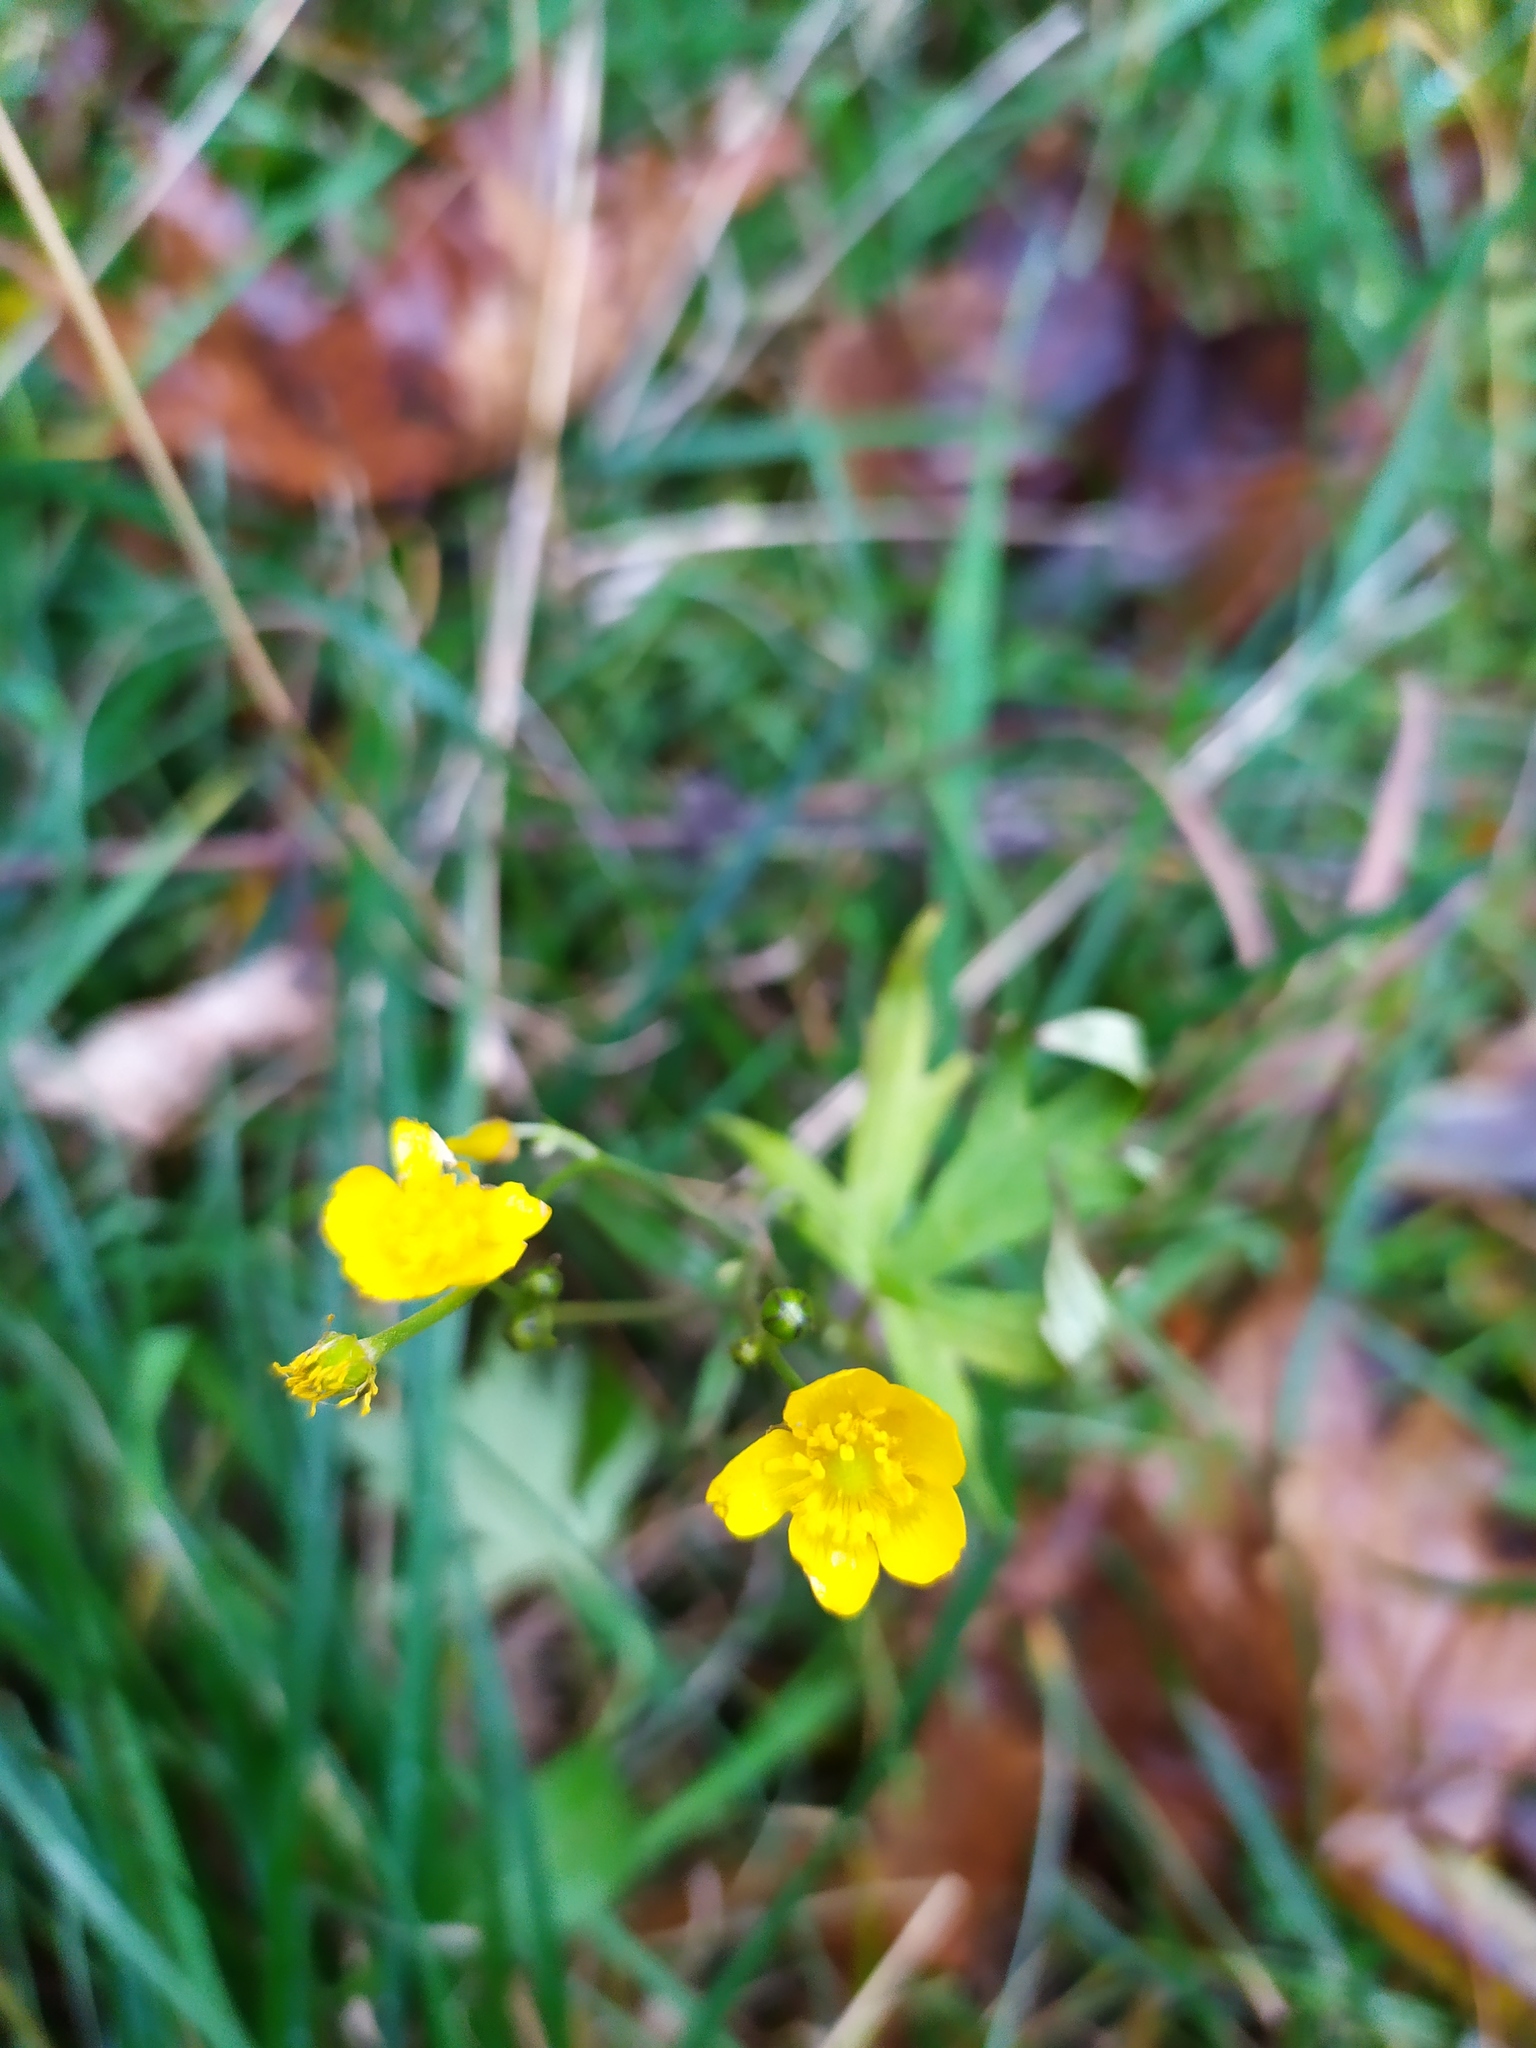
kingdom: Plantae
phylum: Tracheophyta
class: Magnoliopsida
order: Ranunculales
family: Ranunculaceae
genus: Ranunculus
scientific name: Ranunculus acris
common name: Meadow buttercup
